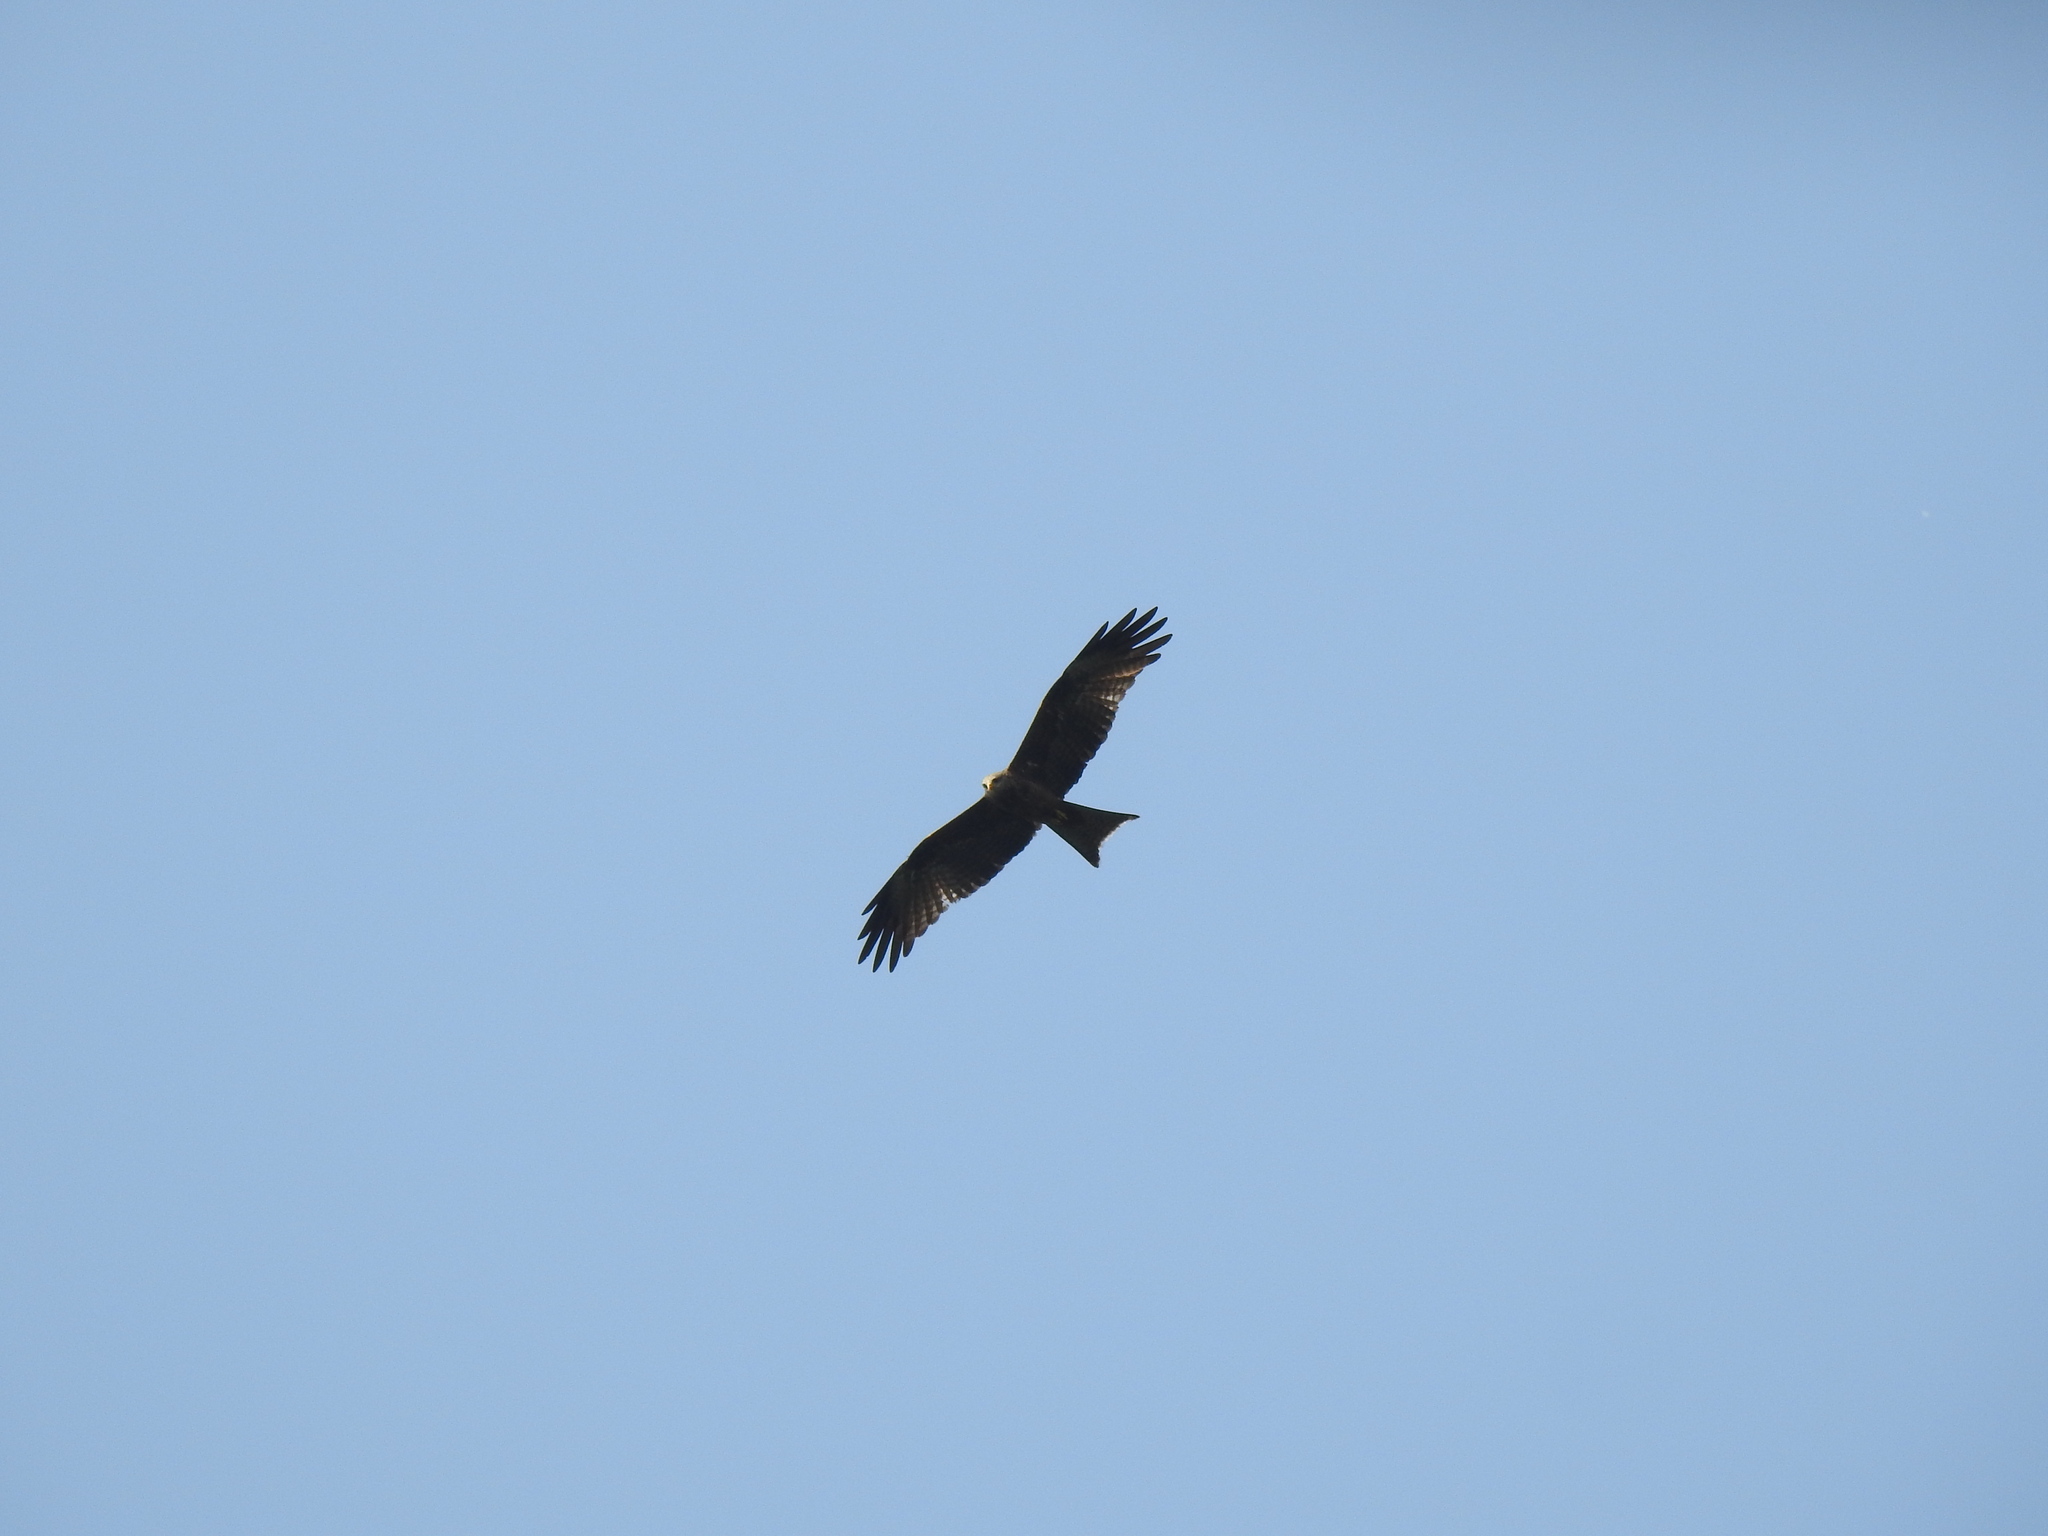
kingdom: Animalia
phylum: Chordata
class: Aves
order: Accipitriformes
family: Accipitridae
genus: Milvus
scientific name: Milvus migrans
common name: Black kite
